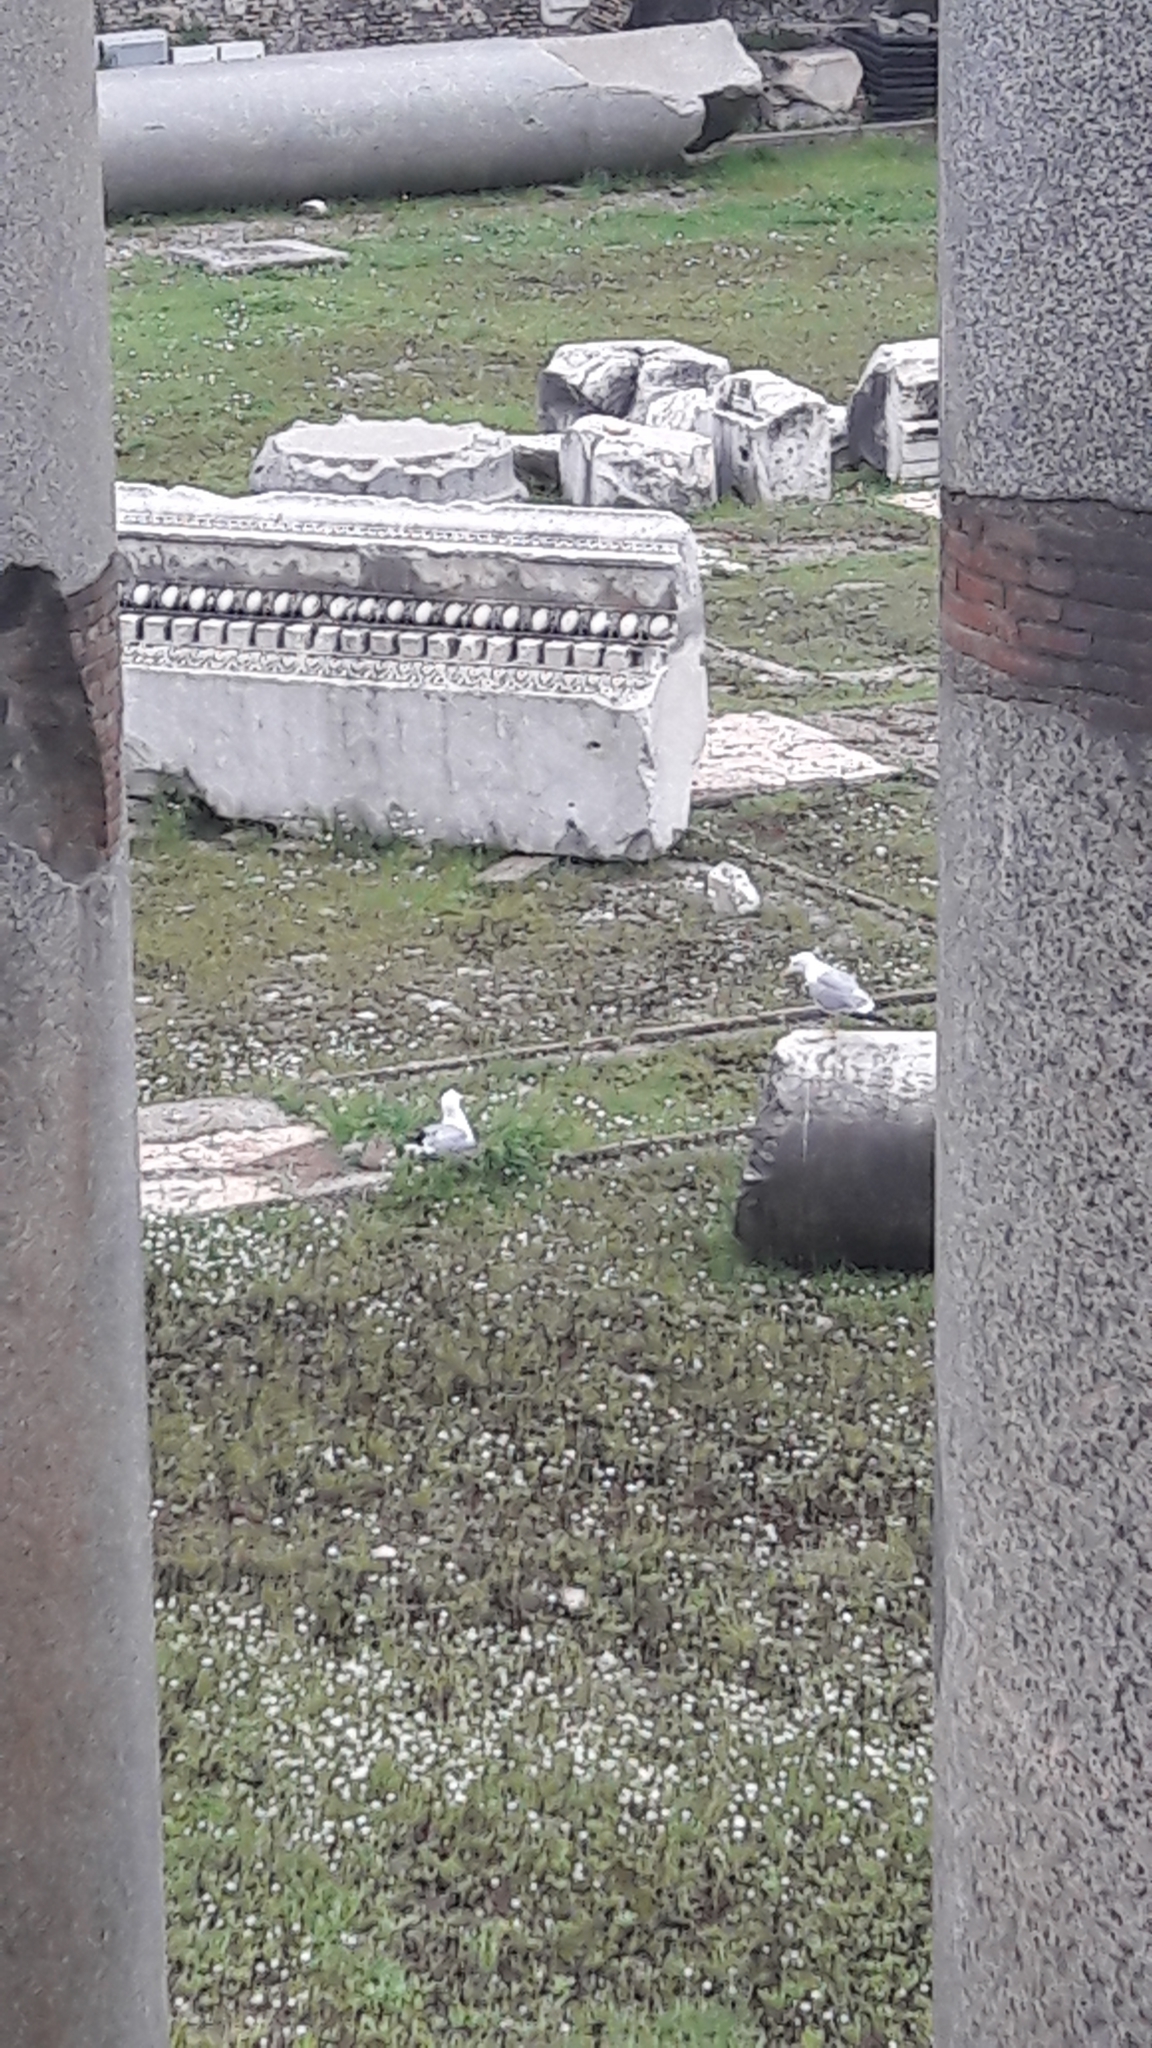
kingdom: Animalia
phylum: Chordata
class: Aves
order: Charadriiformes
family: Laridae
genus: Larus
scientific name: Larus michahellis
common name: Yellow-legged gull
